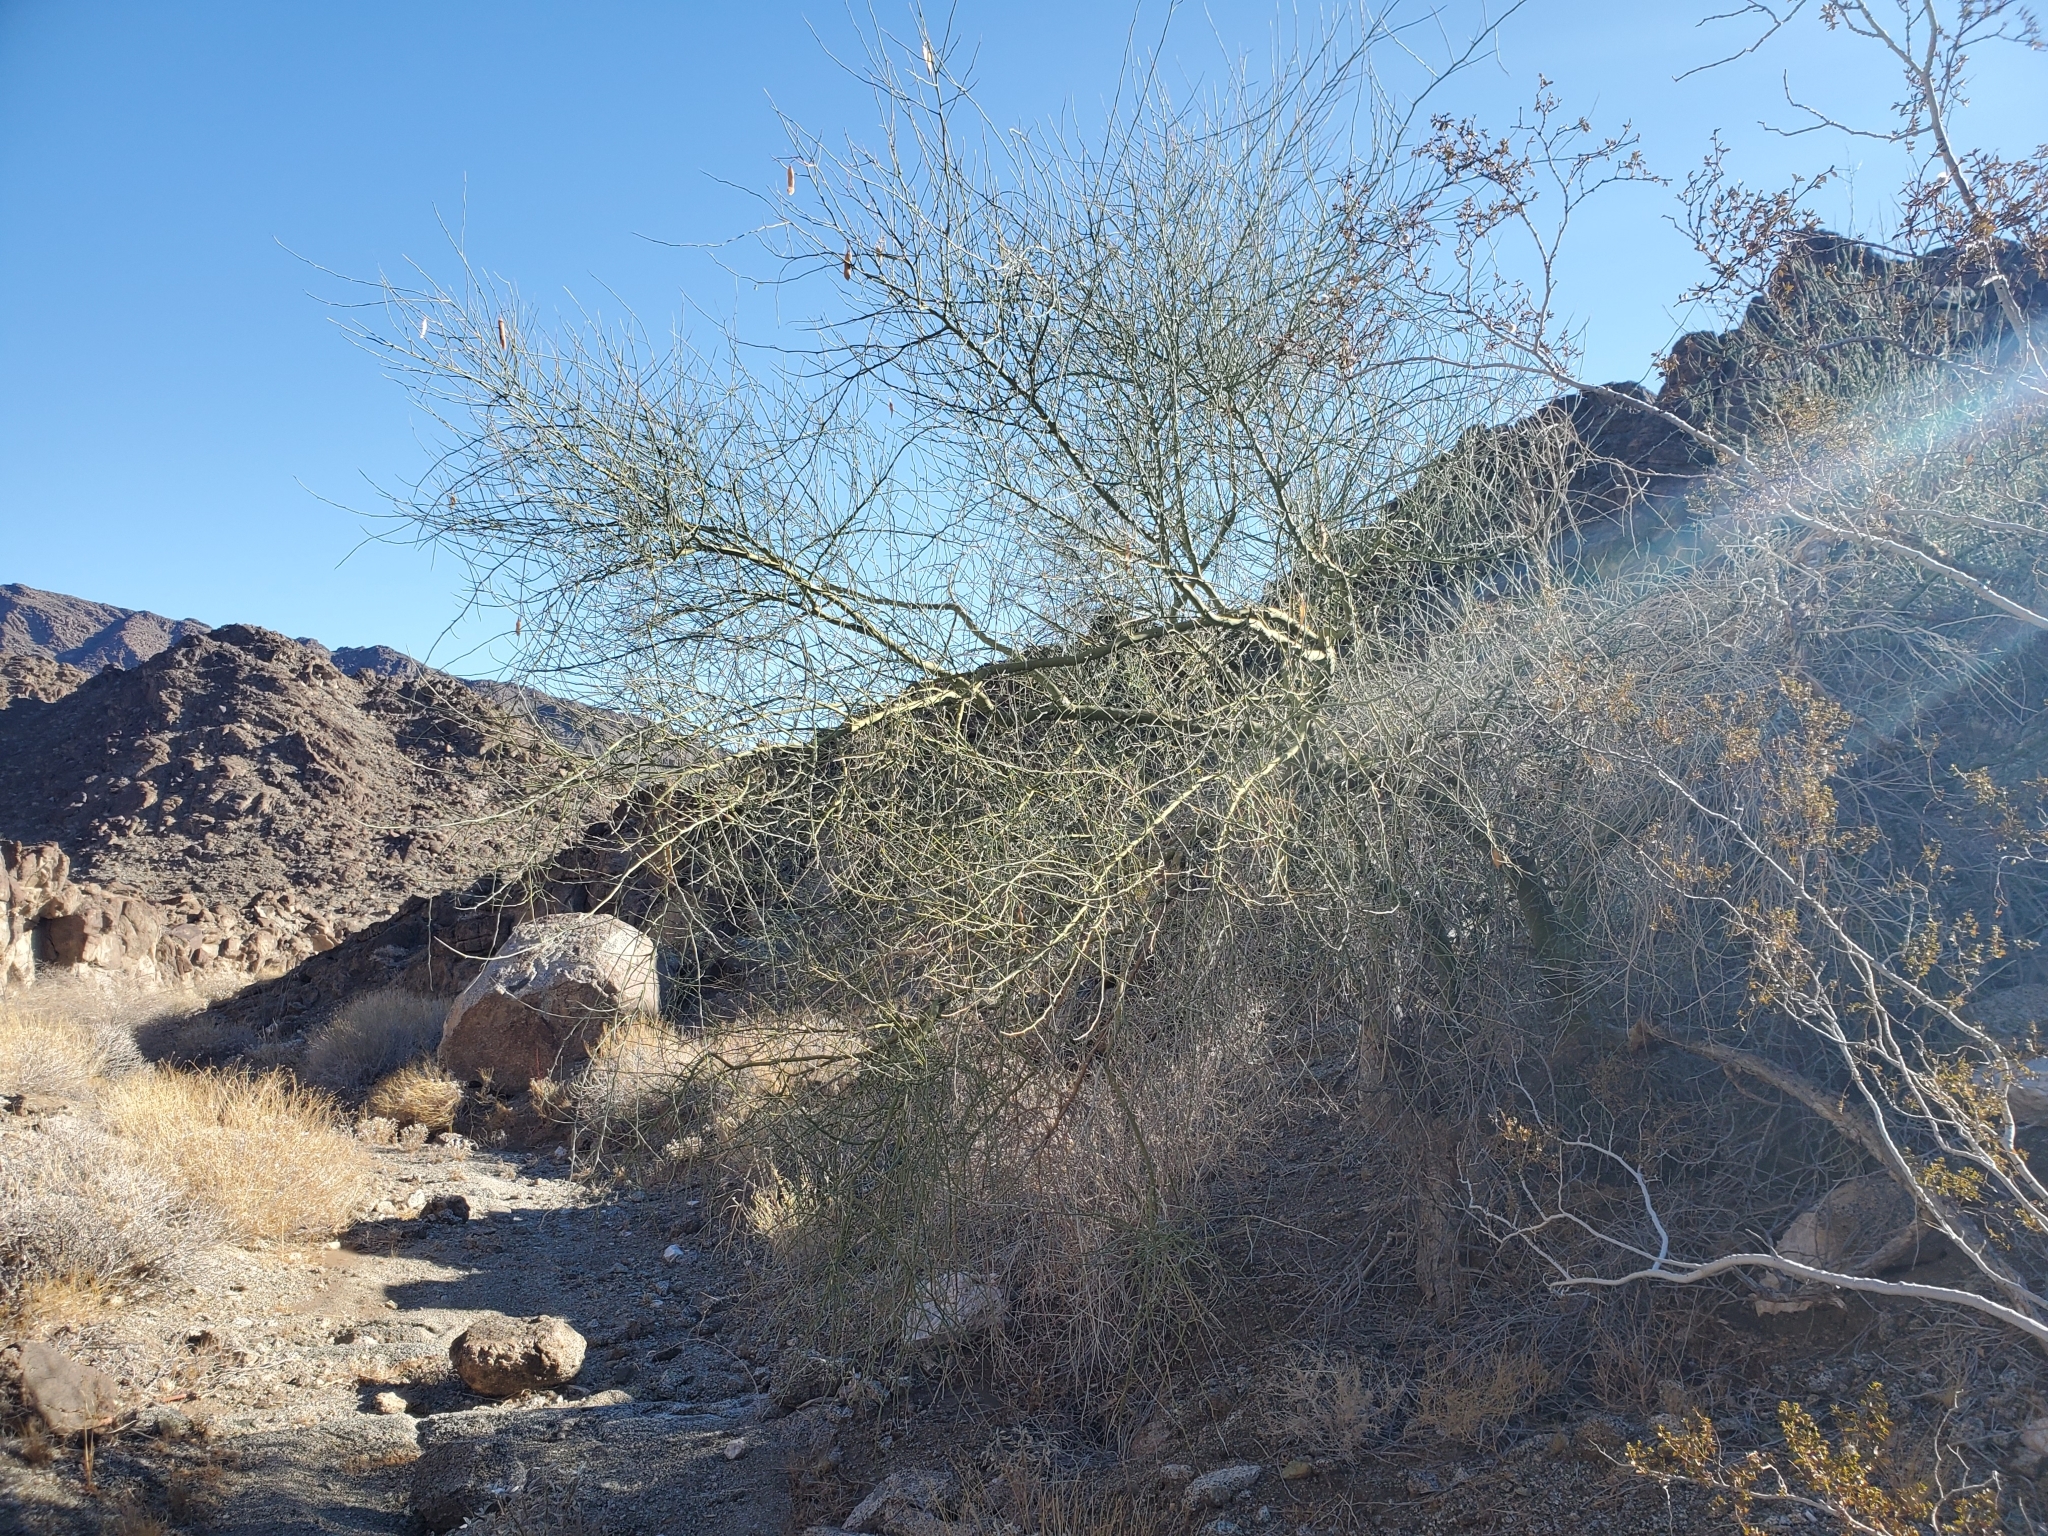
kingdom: Plantae
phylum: Tracheophyta
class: Magnoliopsida
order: Fabales
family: Fabaceae
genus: Parkinsonia
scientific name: Parkinsonia florida
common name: Blue paloverde
